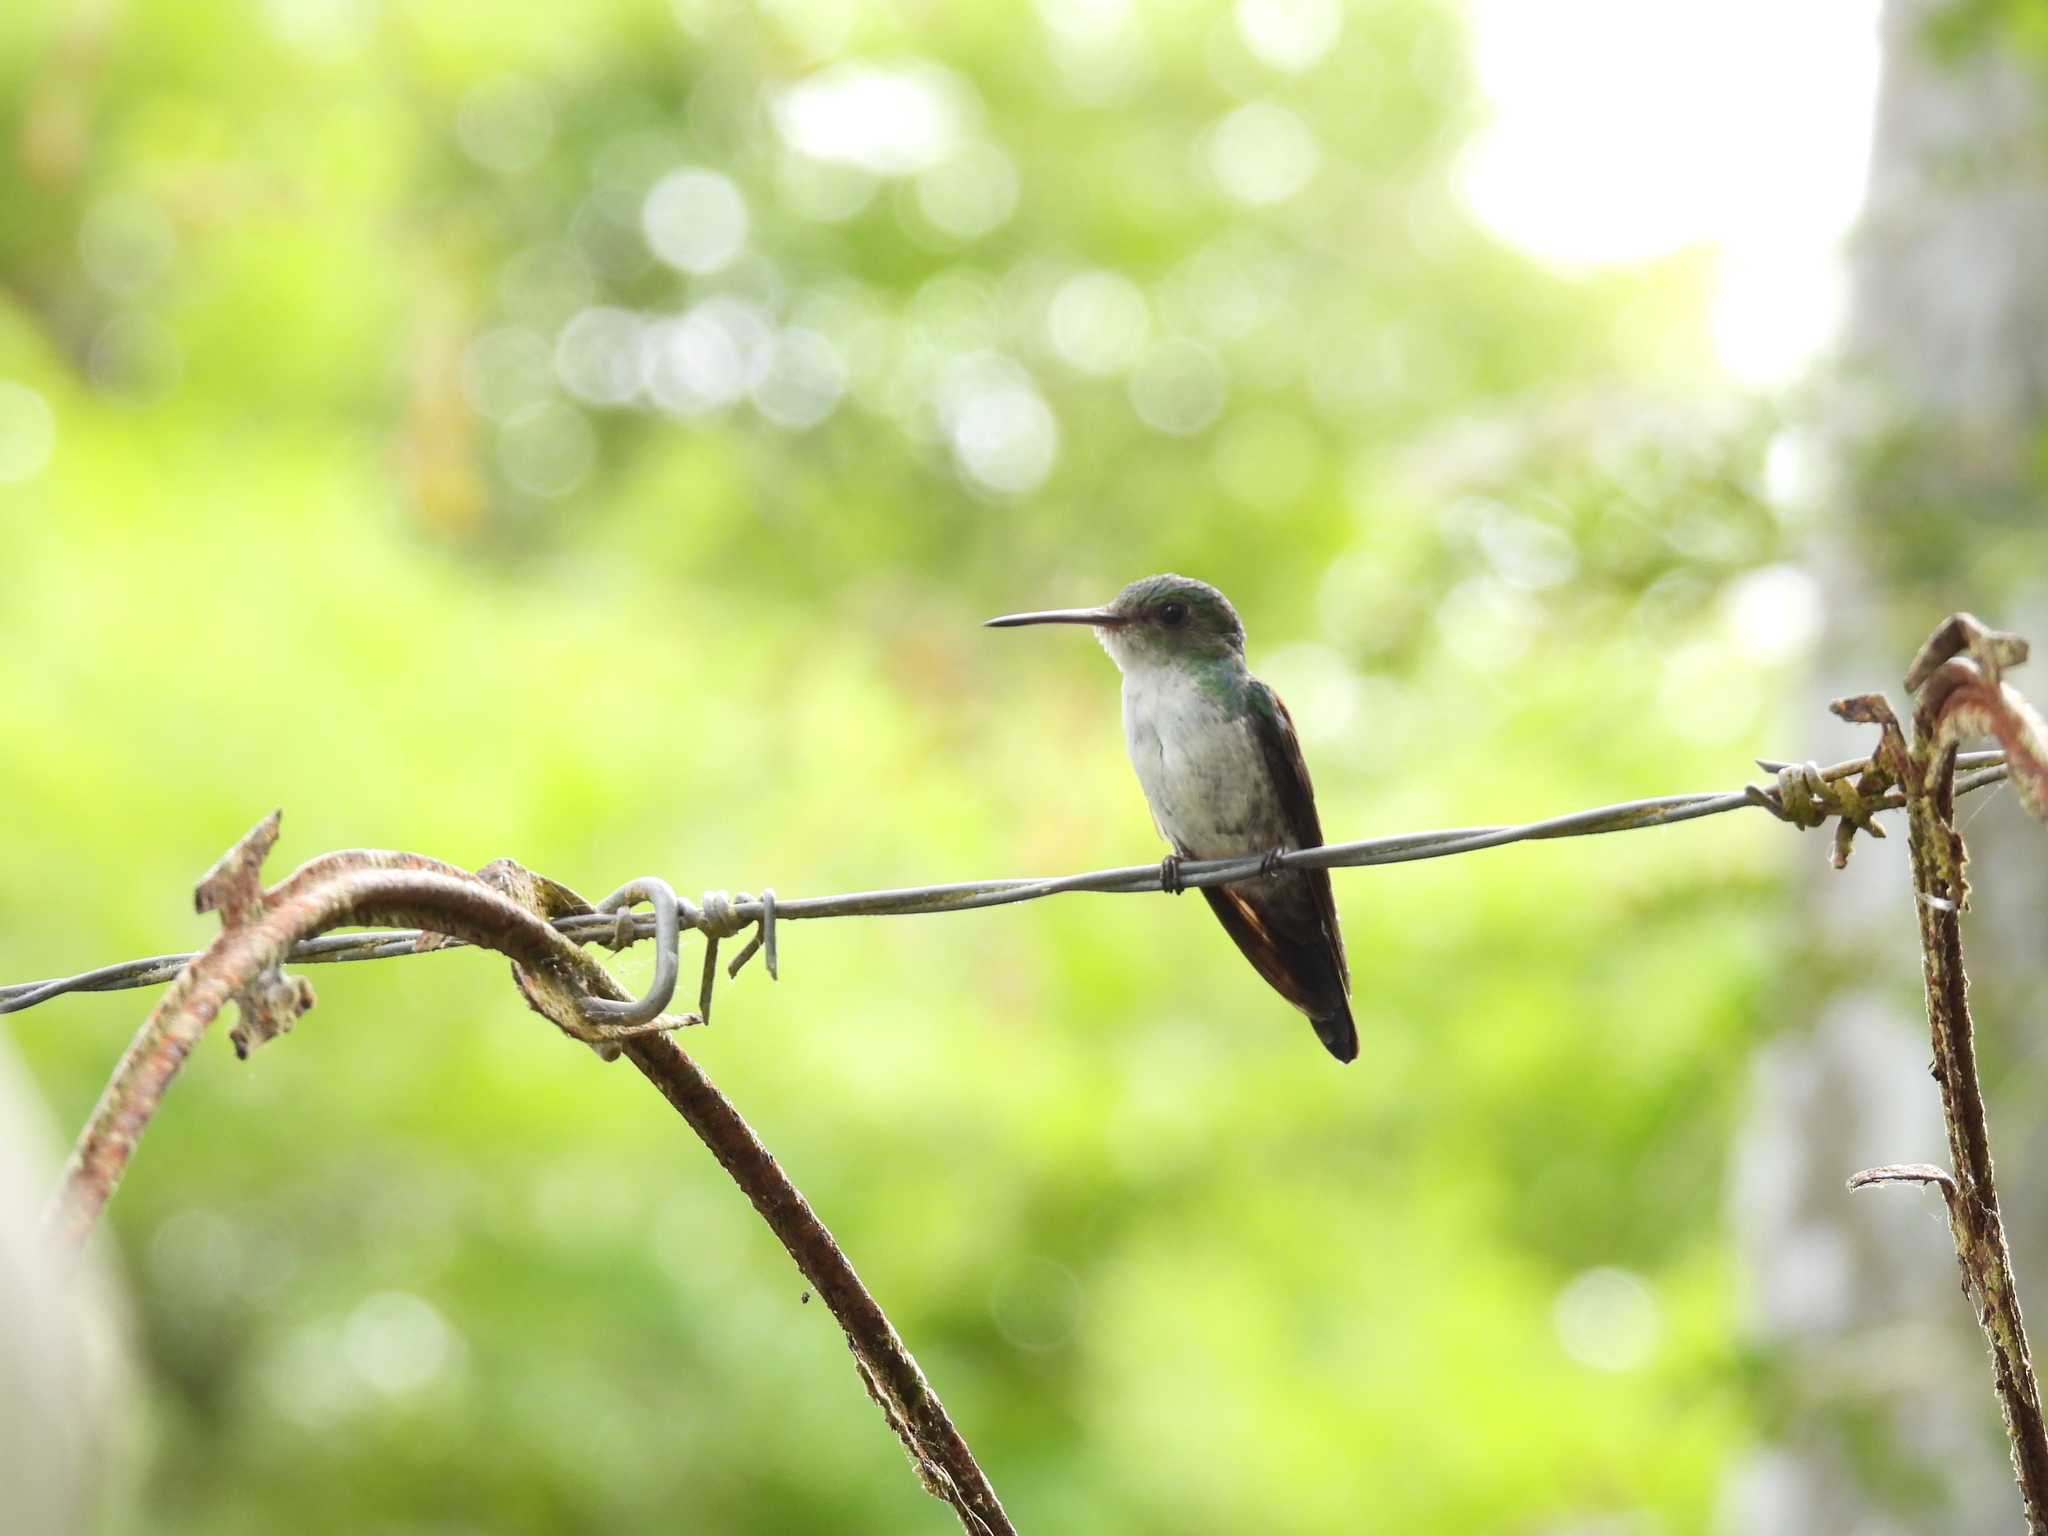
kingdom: Animalia
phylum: Chordata
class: Aves
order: Apodiformes
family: Trochilidae
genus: Chrysuronia
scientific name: Chrysuronia coeruleogularis
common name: Sapphire-throated hummingbird
